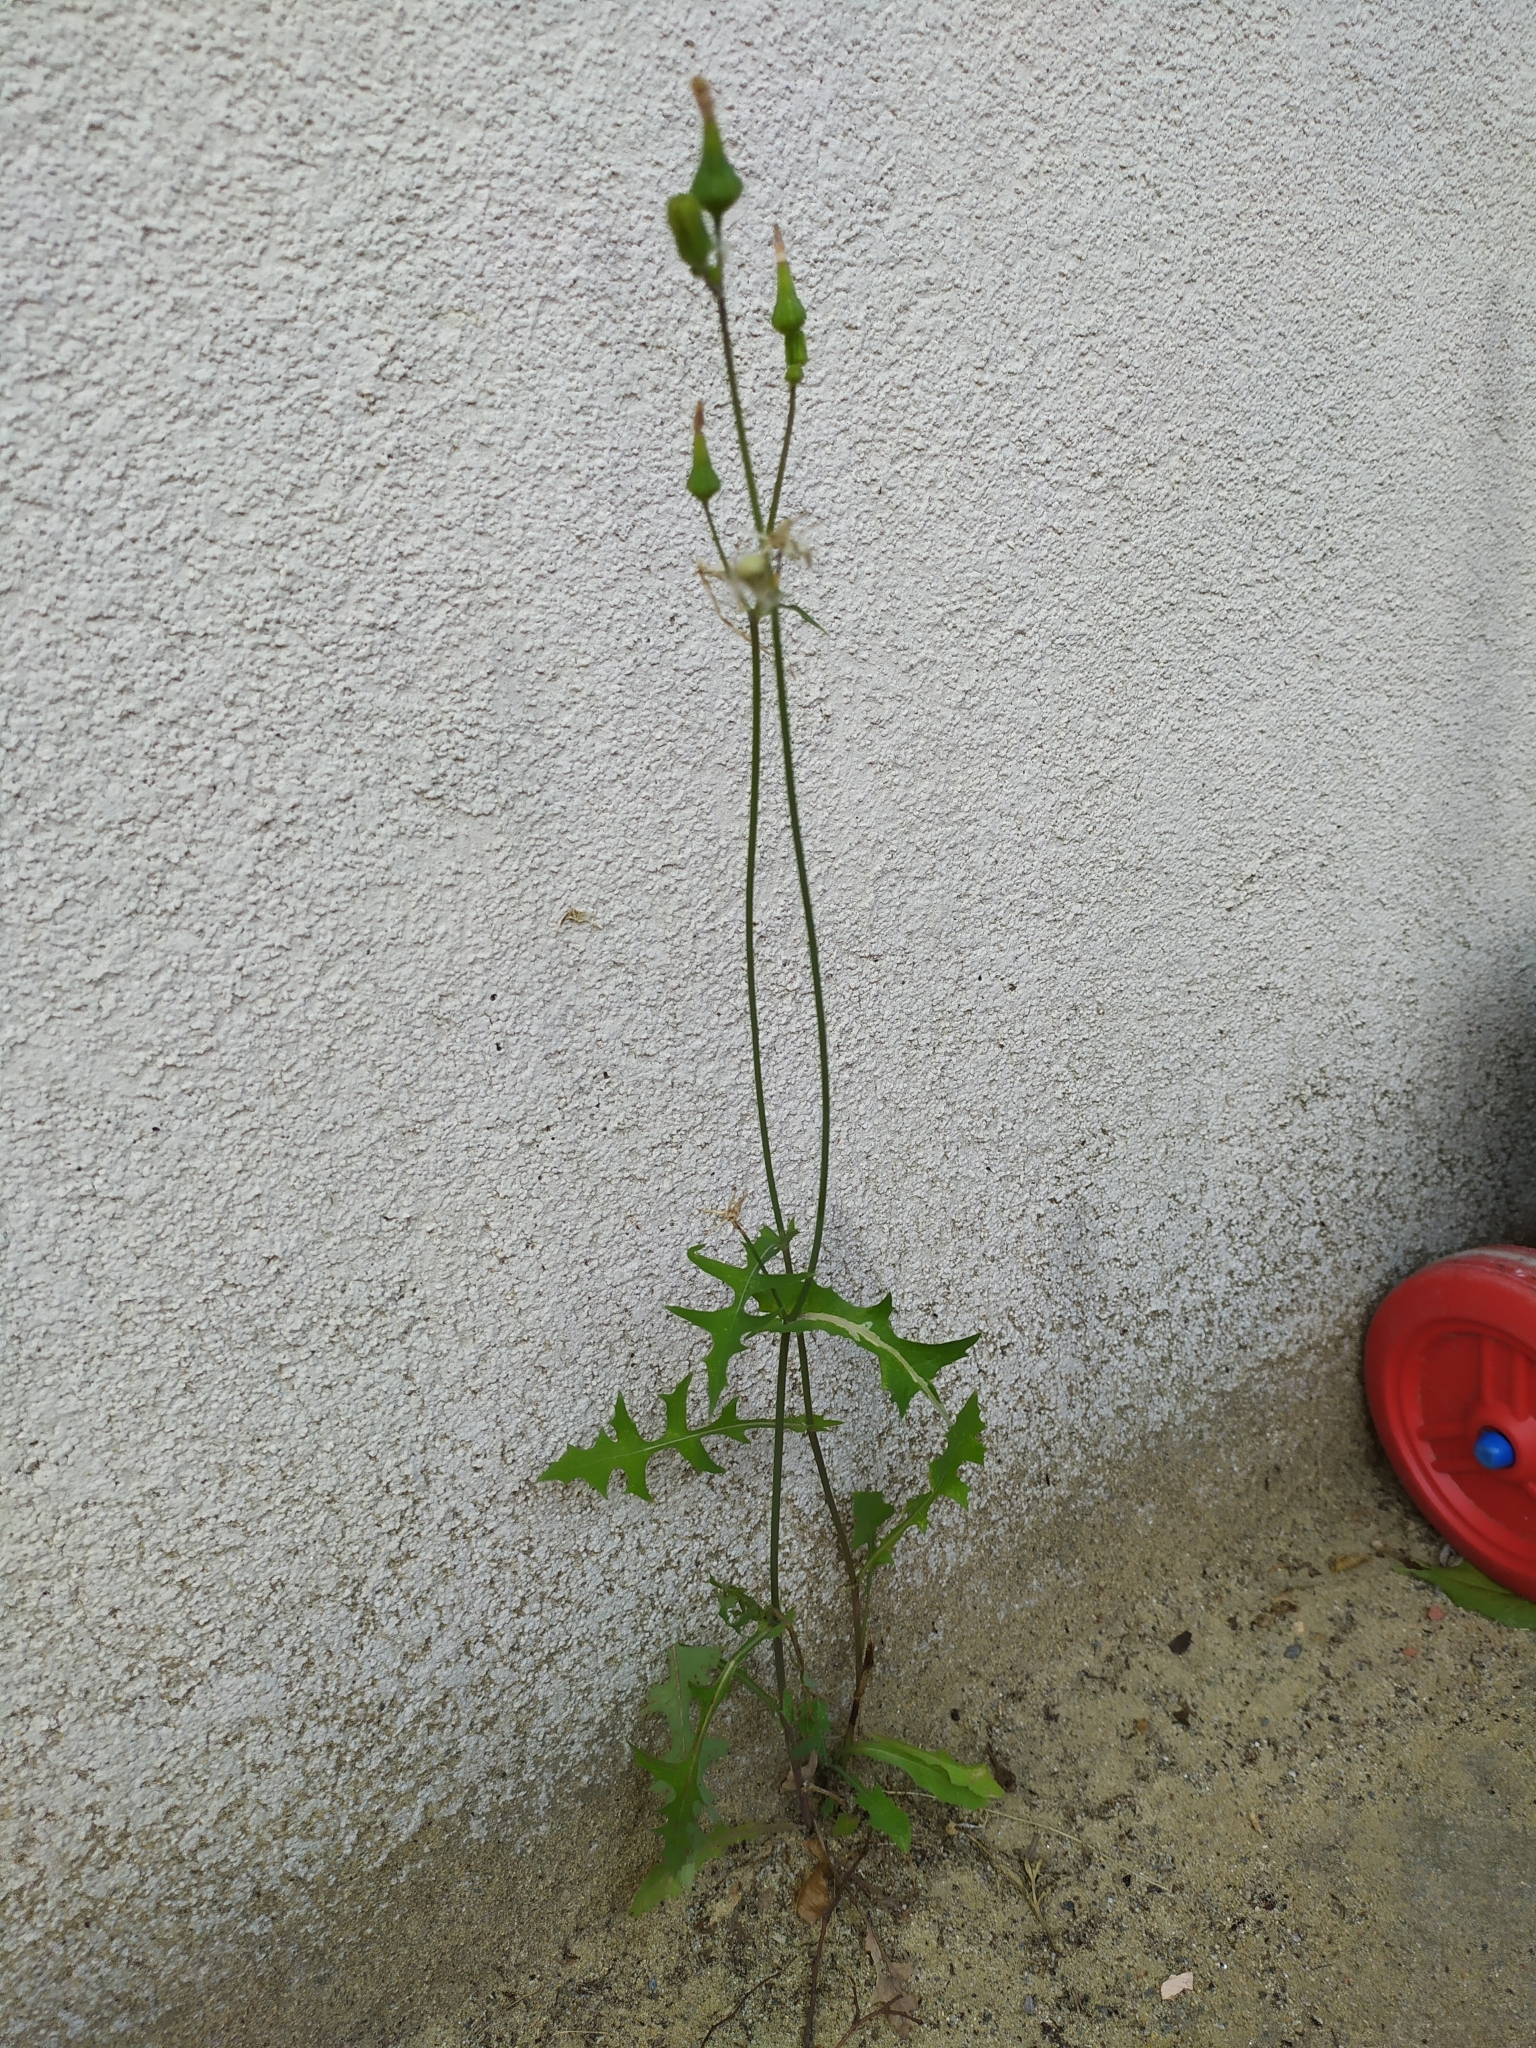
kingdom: Plantae
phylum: Tracheophyta
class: Magnoliopsida
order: Asterales
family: Asteraceae
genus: Sonchus
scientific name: Sonchus oleraceus
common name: Common sowthistle
